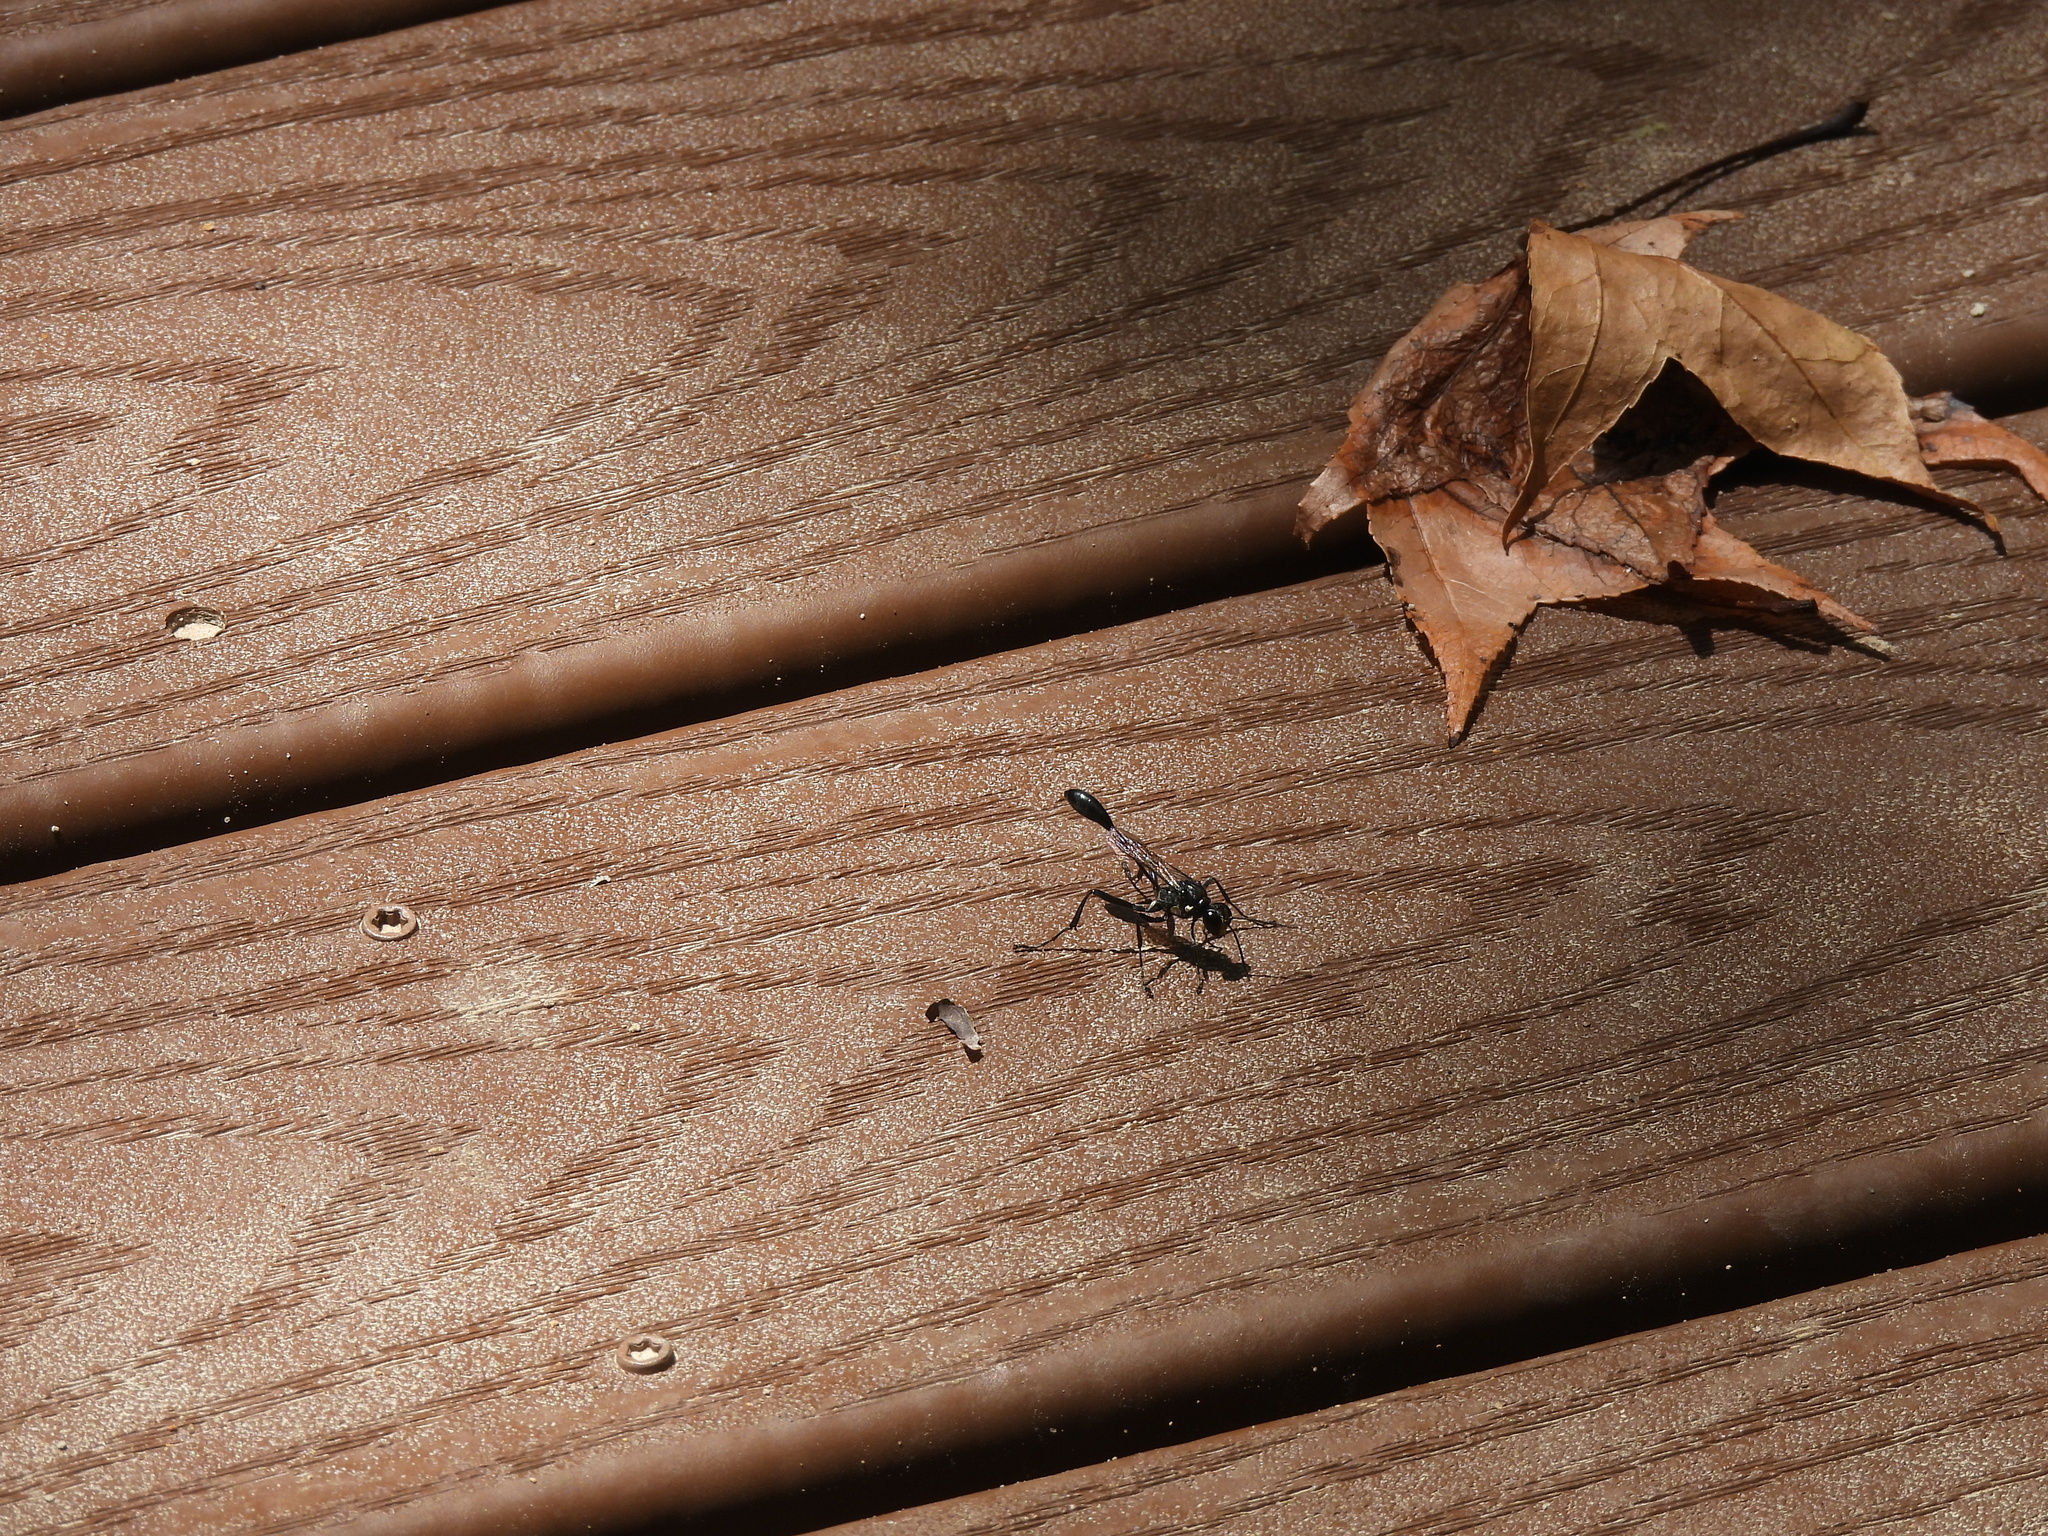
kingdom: Animalia
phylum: Arthropoda
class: Insecta
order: Hymenoptera
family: Sphecidae
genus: Eremnophila
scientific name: Eremnophila aureonotata
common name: Gold-marked thread-waisted wasp
